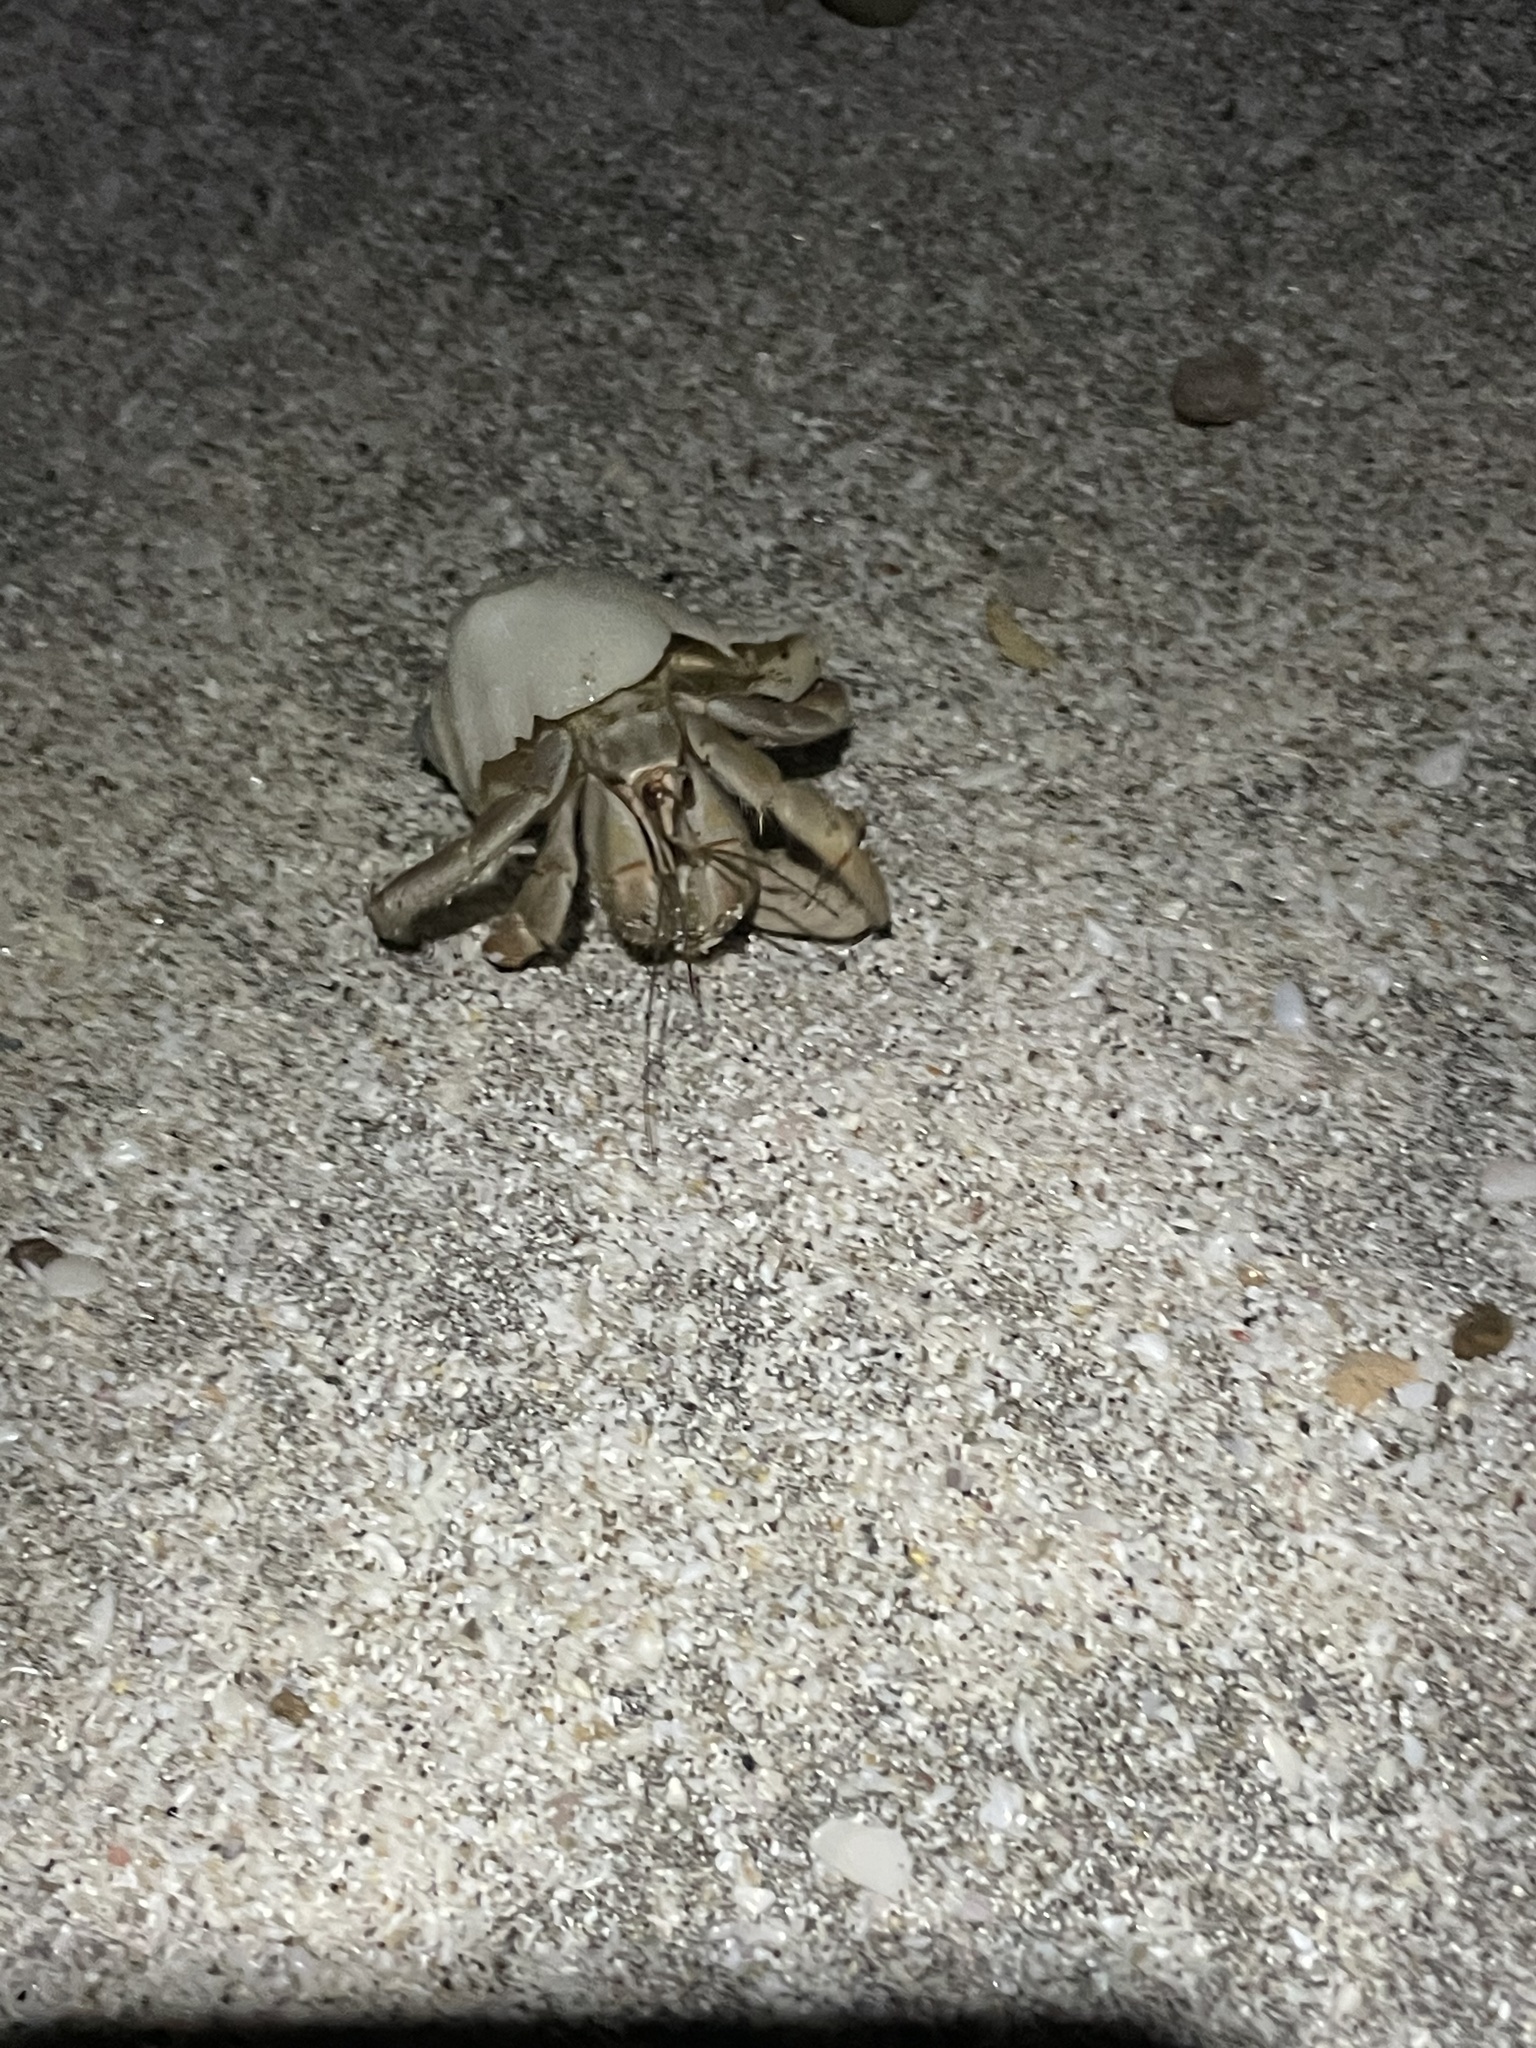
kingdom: Animalia
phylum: Arthropoda
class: Malacostraca
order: Decapoda
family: Coenobitidae
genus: Coenobita
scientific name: Coenobita compressus
